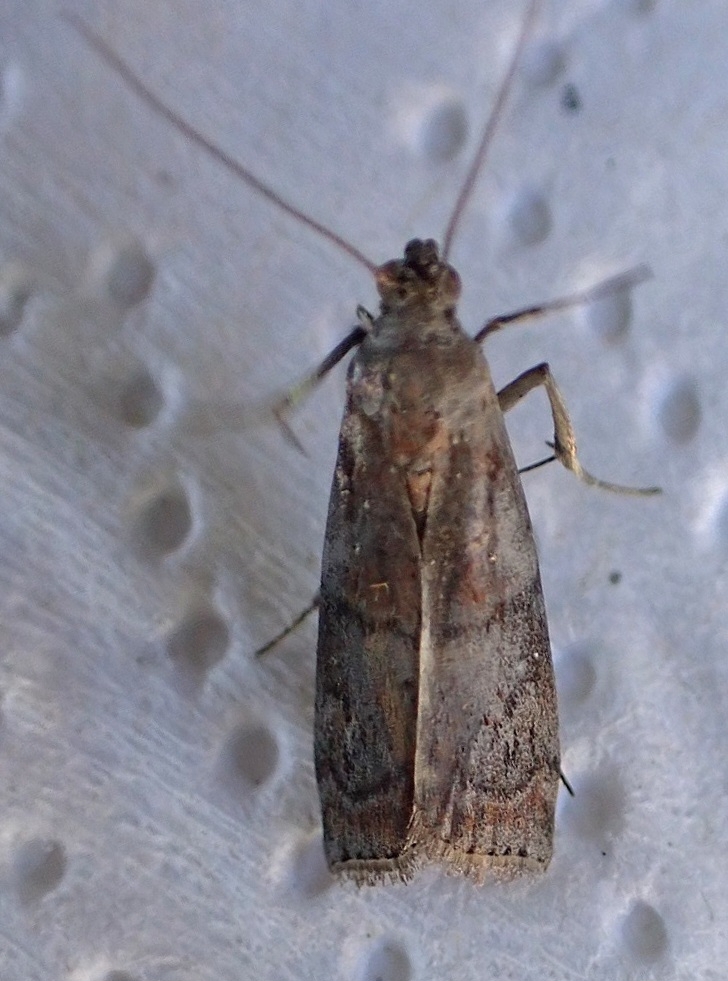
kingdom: Animalia
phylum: Arthropoda
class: Insecta
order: Lepidoptera
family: Pyralidae
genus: Phycita
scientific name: Phycita roborella
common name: Dotted oak knot-horn
